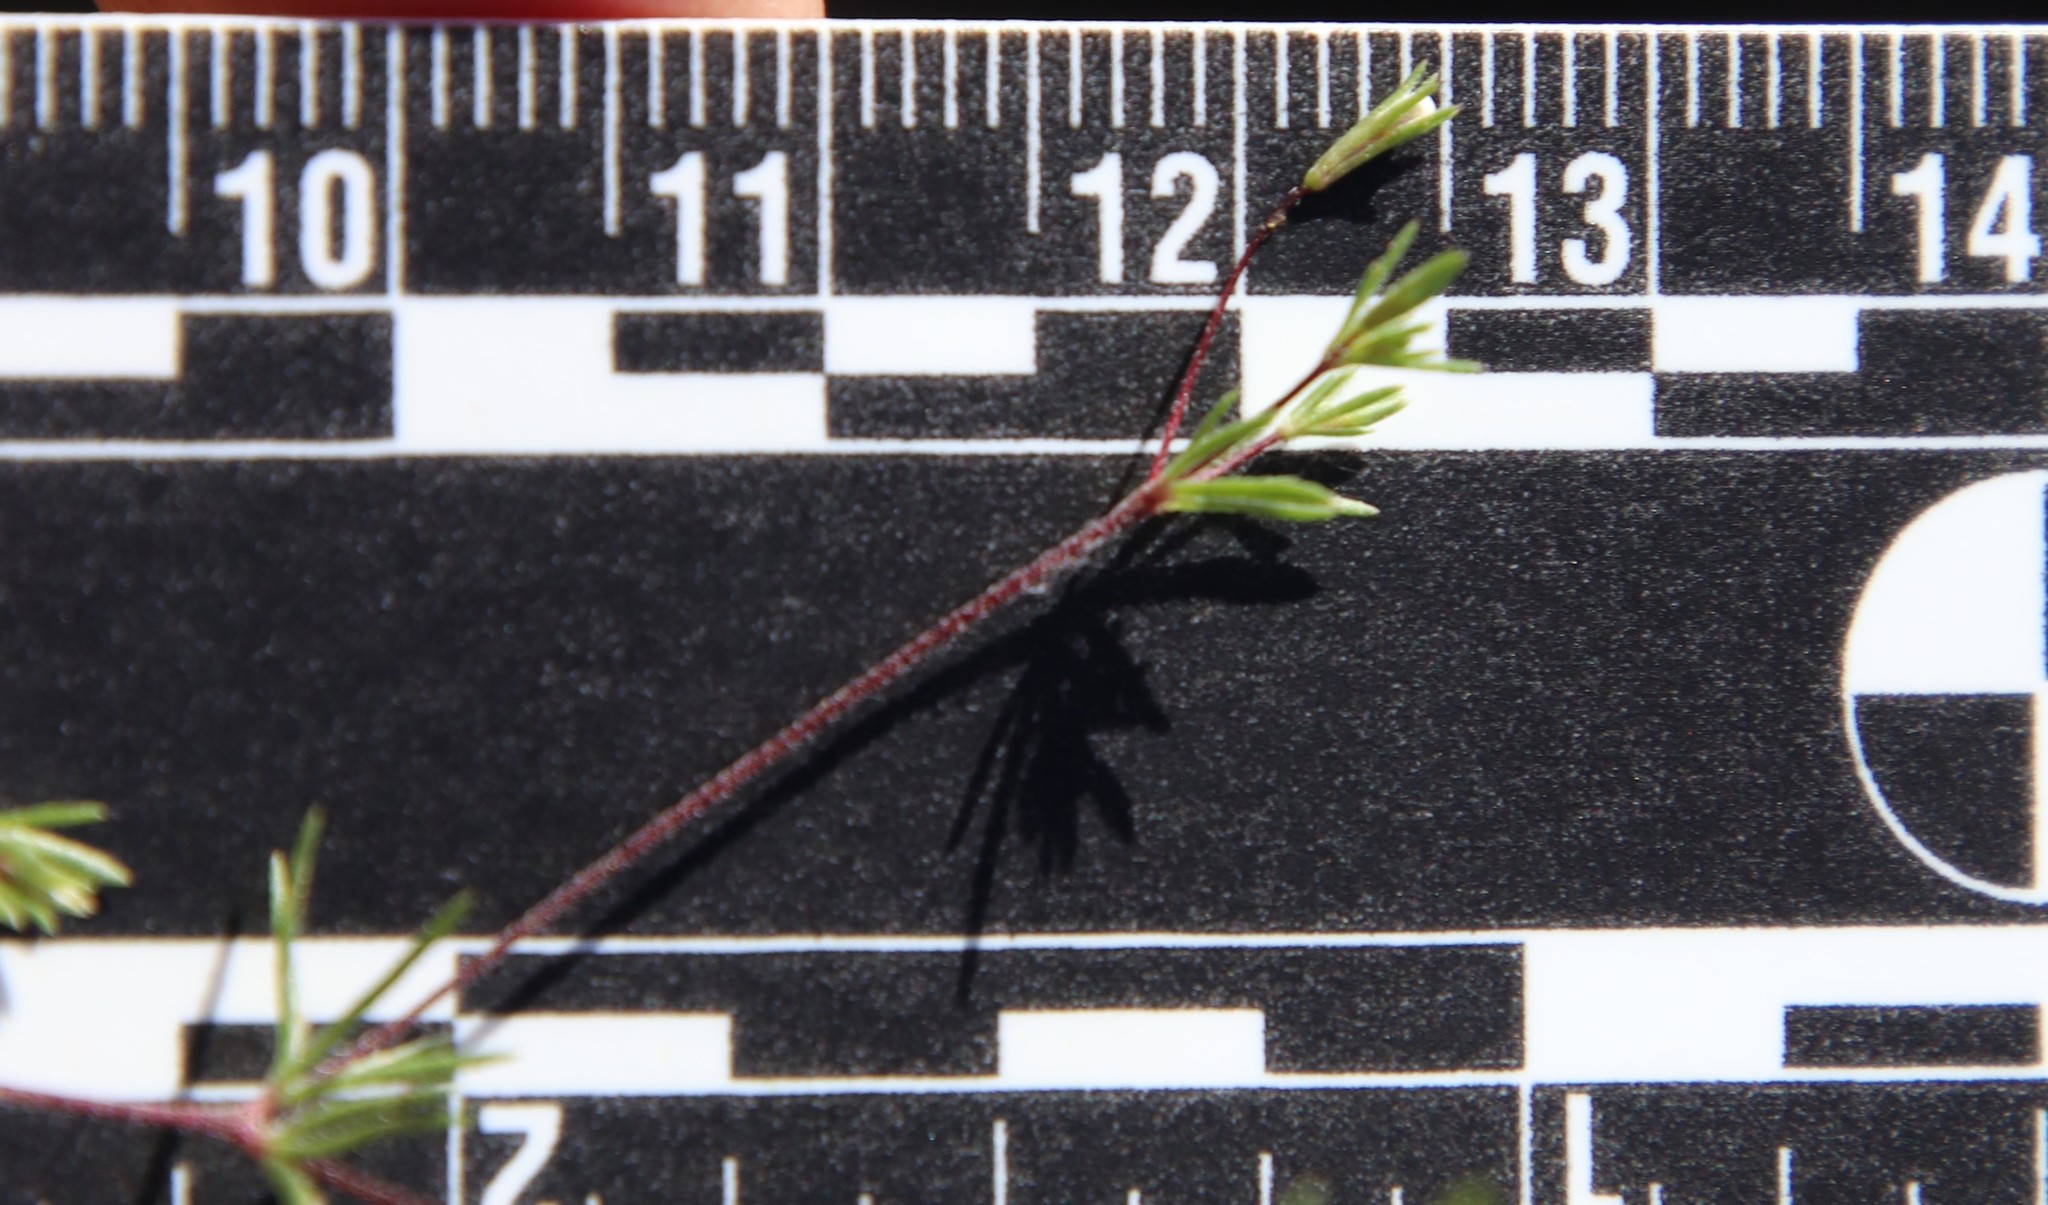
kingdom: Plantae
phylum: Tracheophyta
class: Magnoliopsida
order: Ericales
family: Polemoniaceae
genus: Leptosiphon
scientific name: Leptosiphon pygmaeus
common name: Pygmy linanthus
